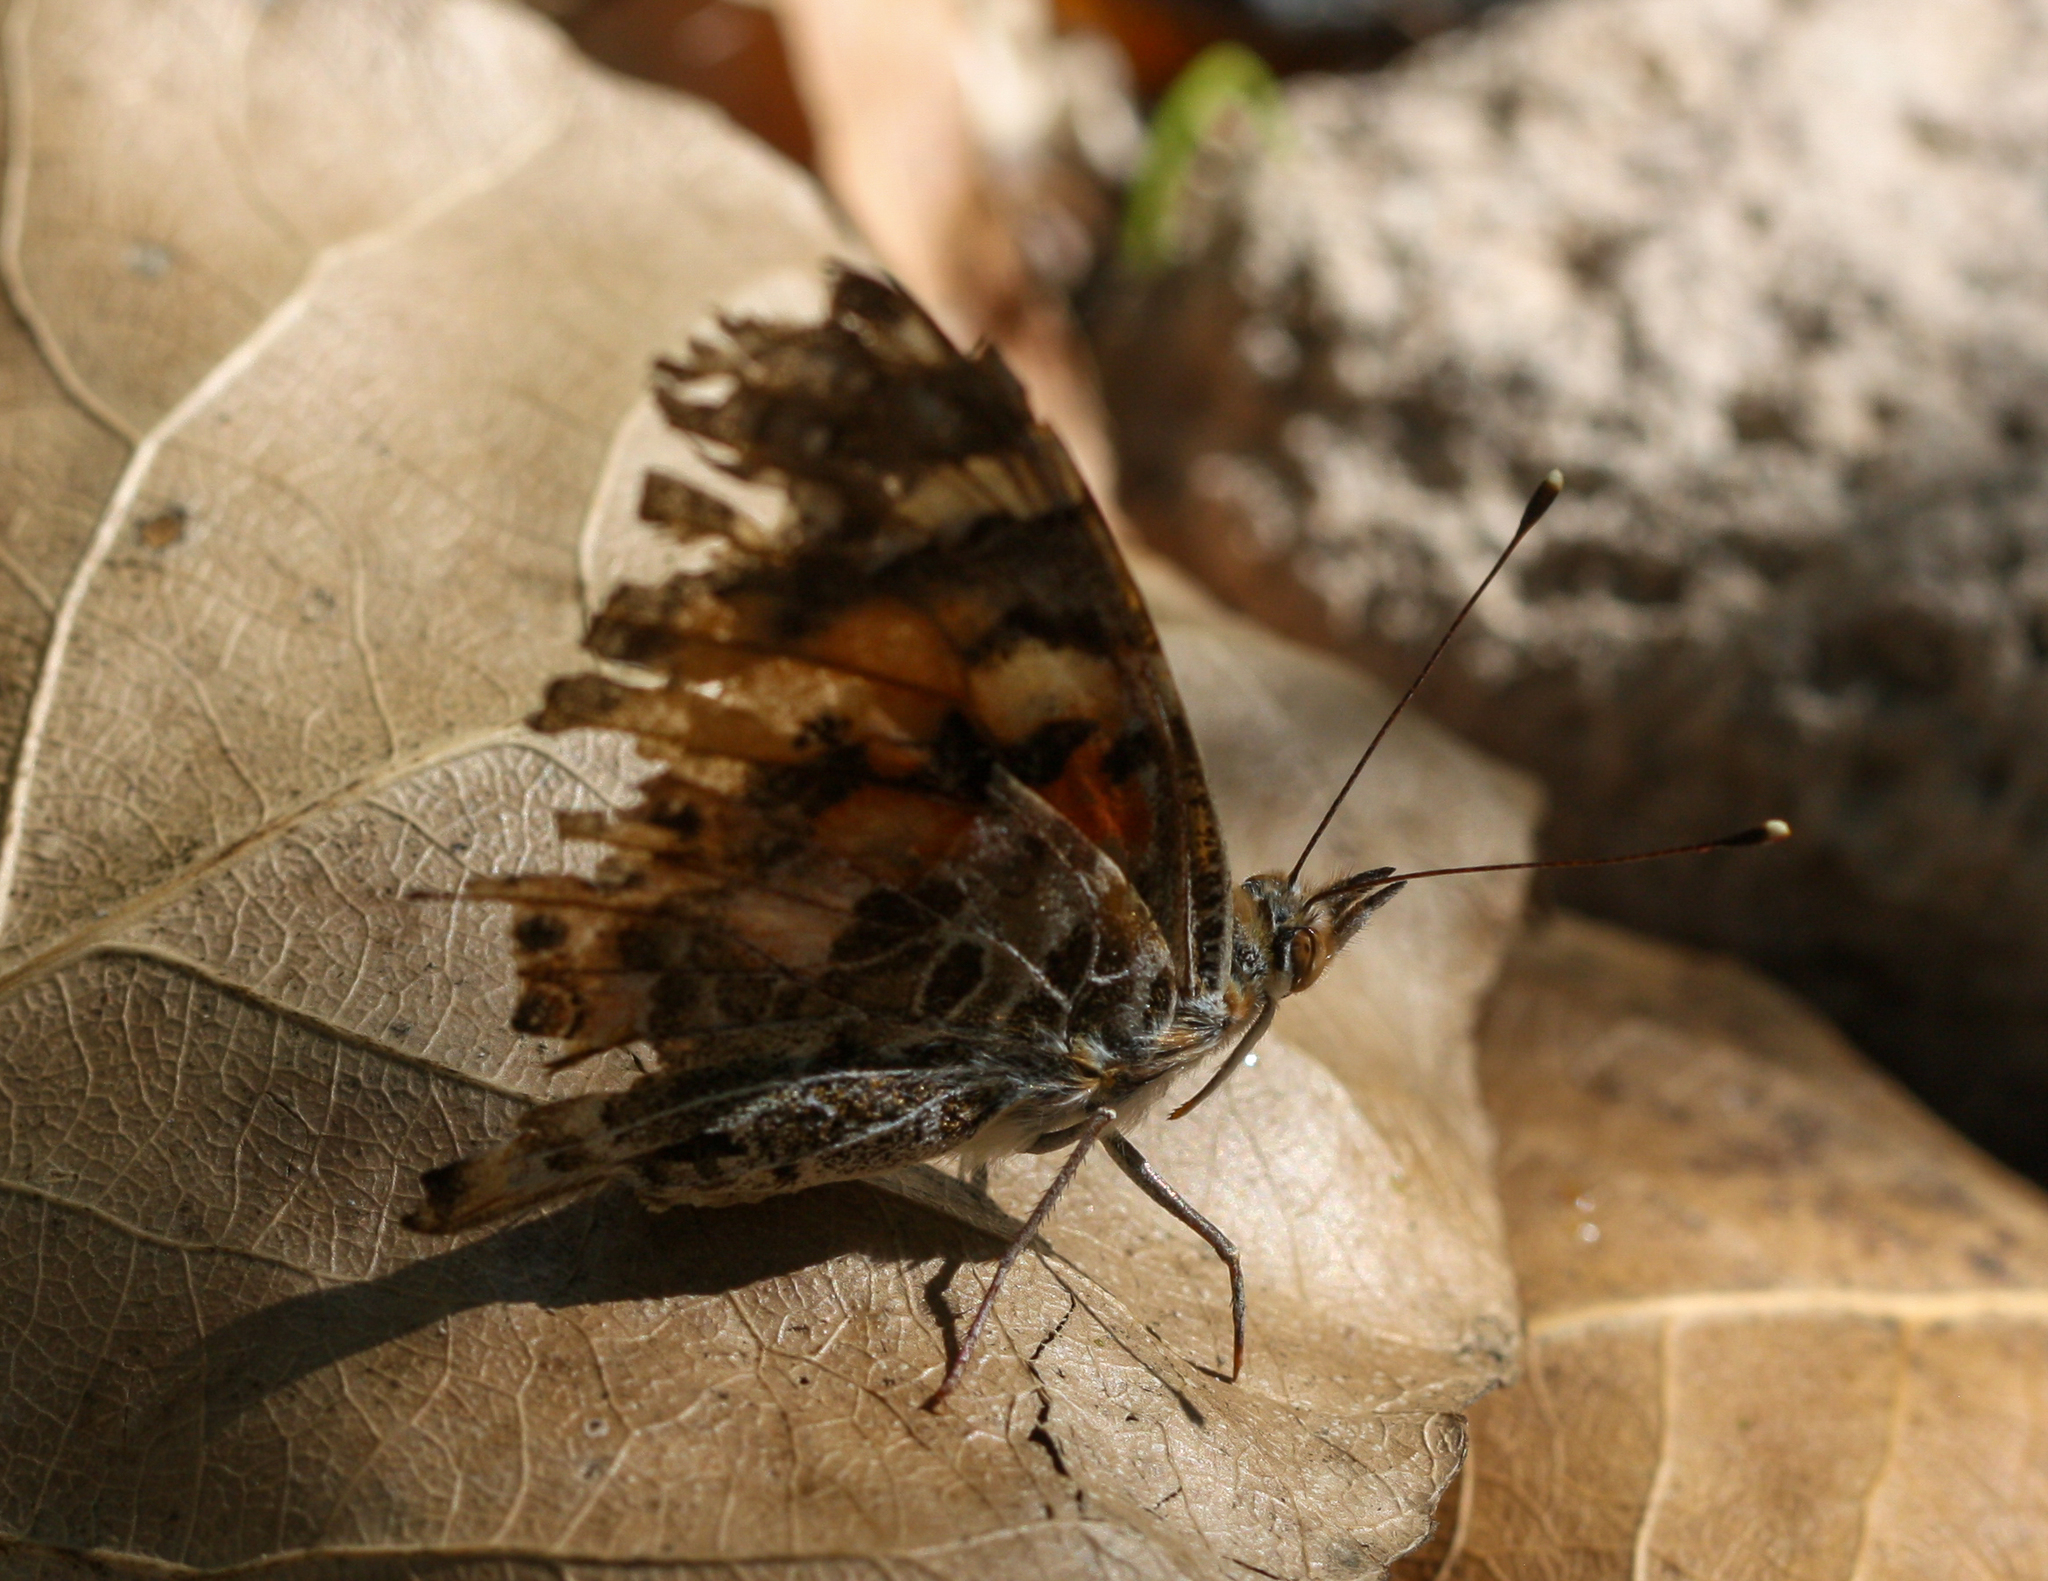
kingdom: Animalia
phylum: Arthropoda
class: Insecta
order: Lepidoptera
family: Nymphalidae
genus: Vanessa
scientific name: Vanessa cardui
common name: Painted lady
